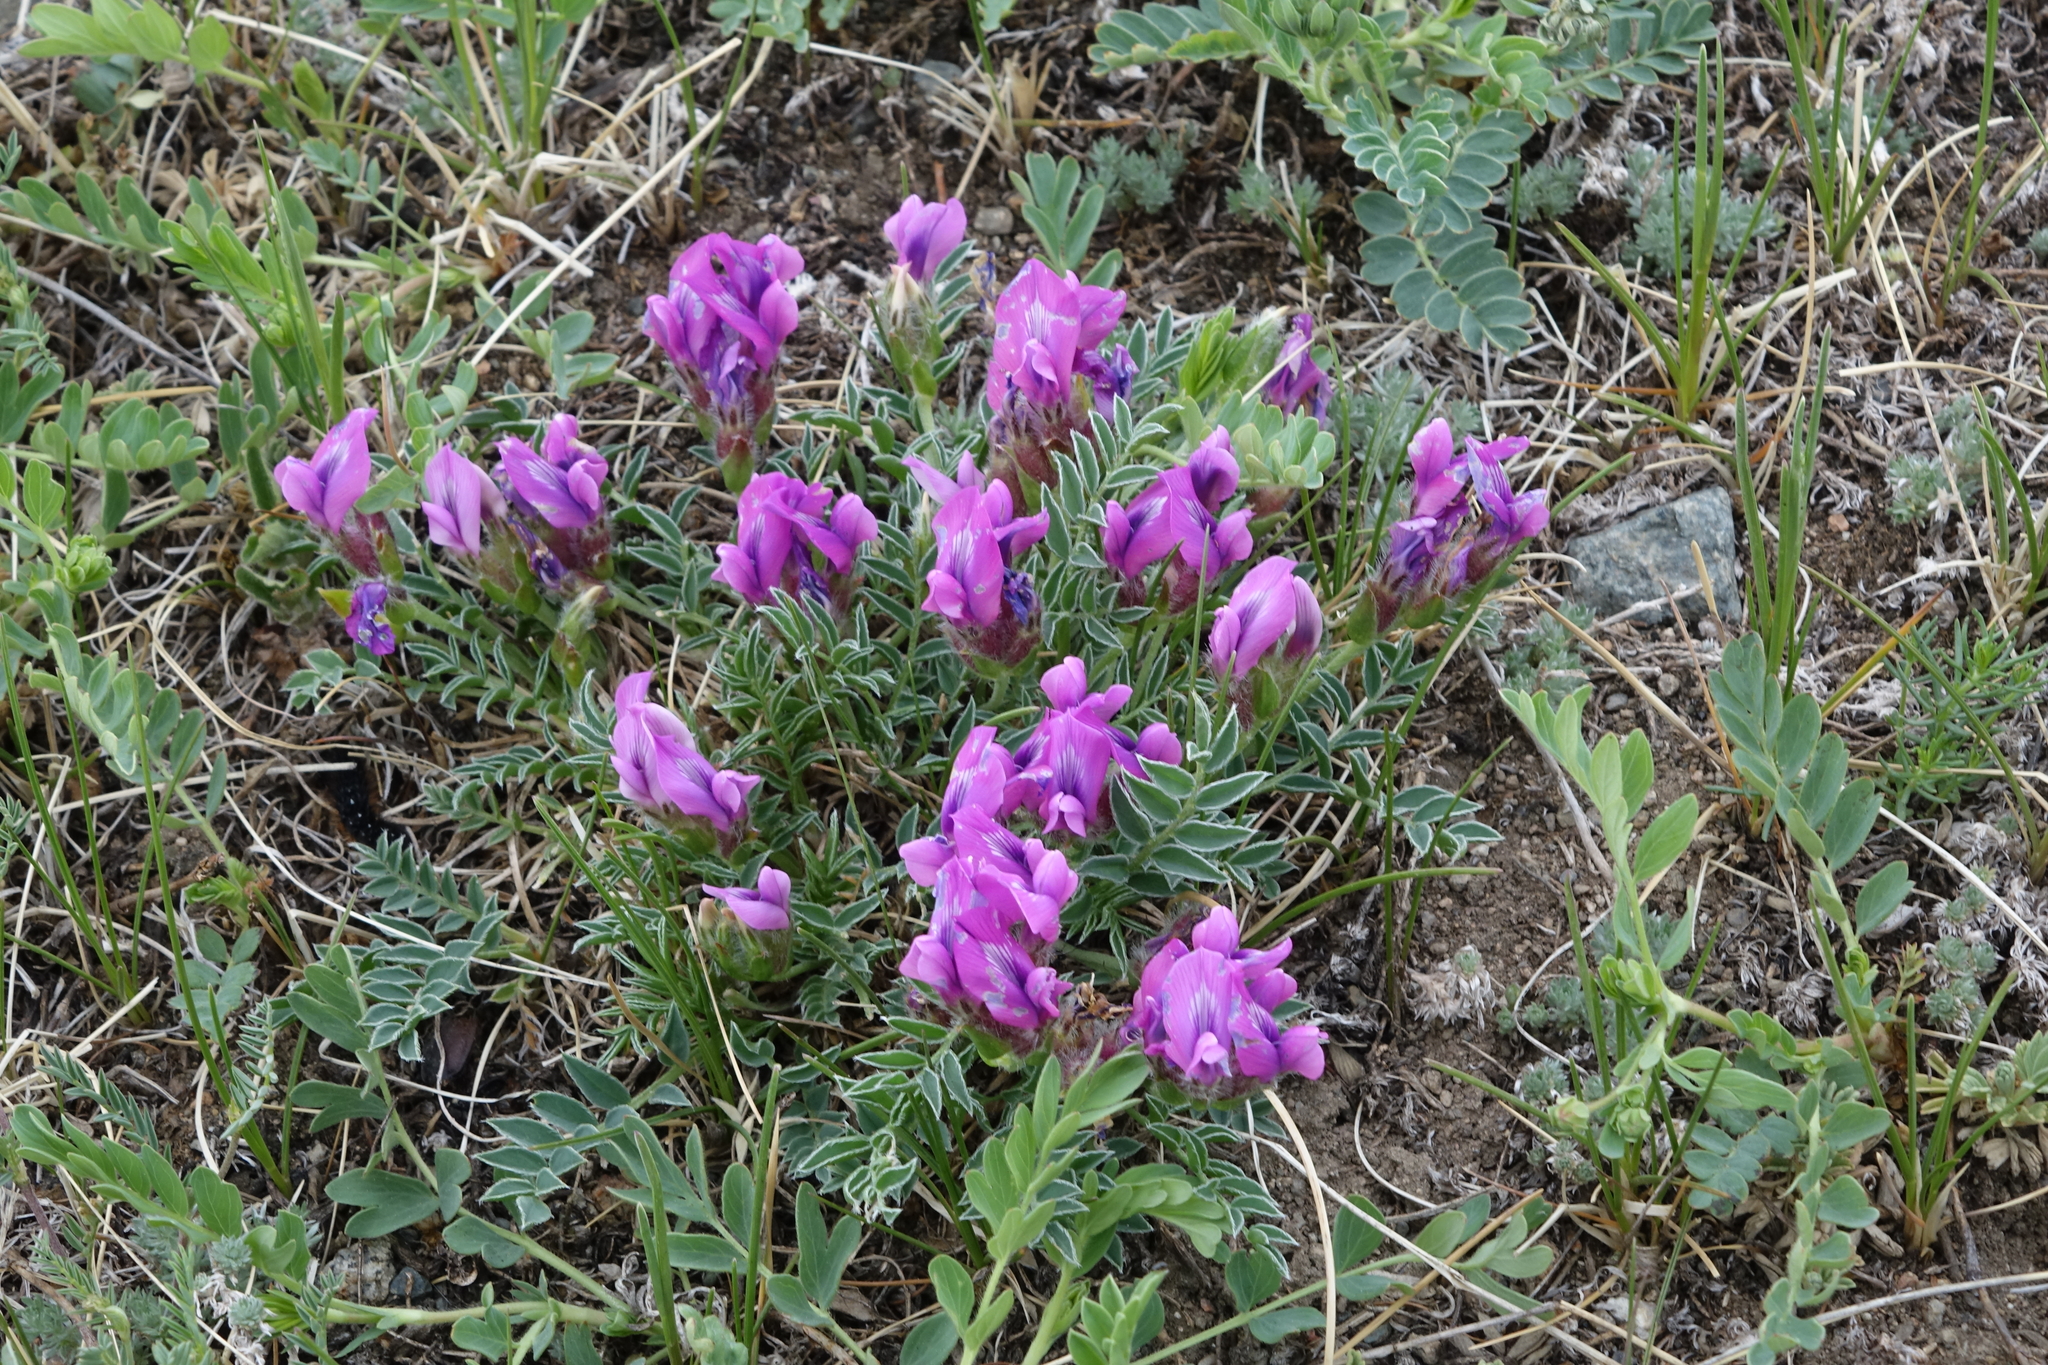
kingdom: Plantae
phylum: Tracheophyta
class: Magnoliopsida
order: Fabales
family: Fabaceae
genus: Oxytropis
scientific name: Oxytropis setosa
